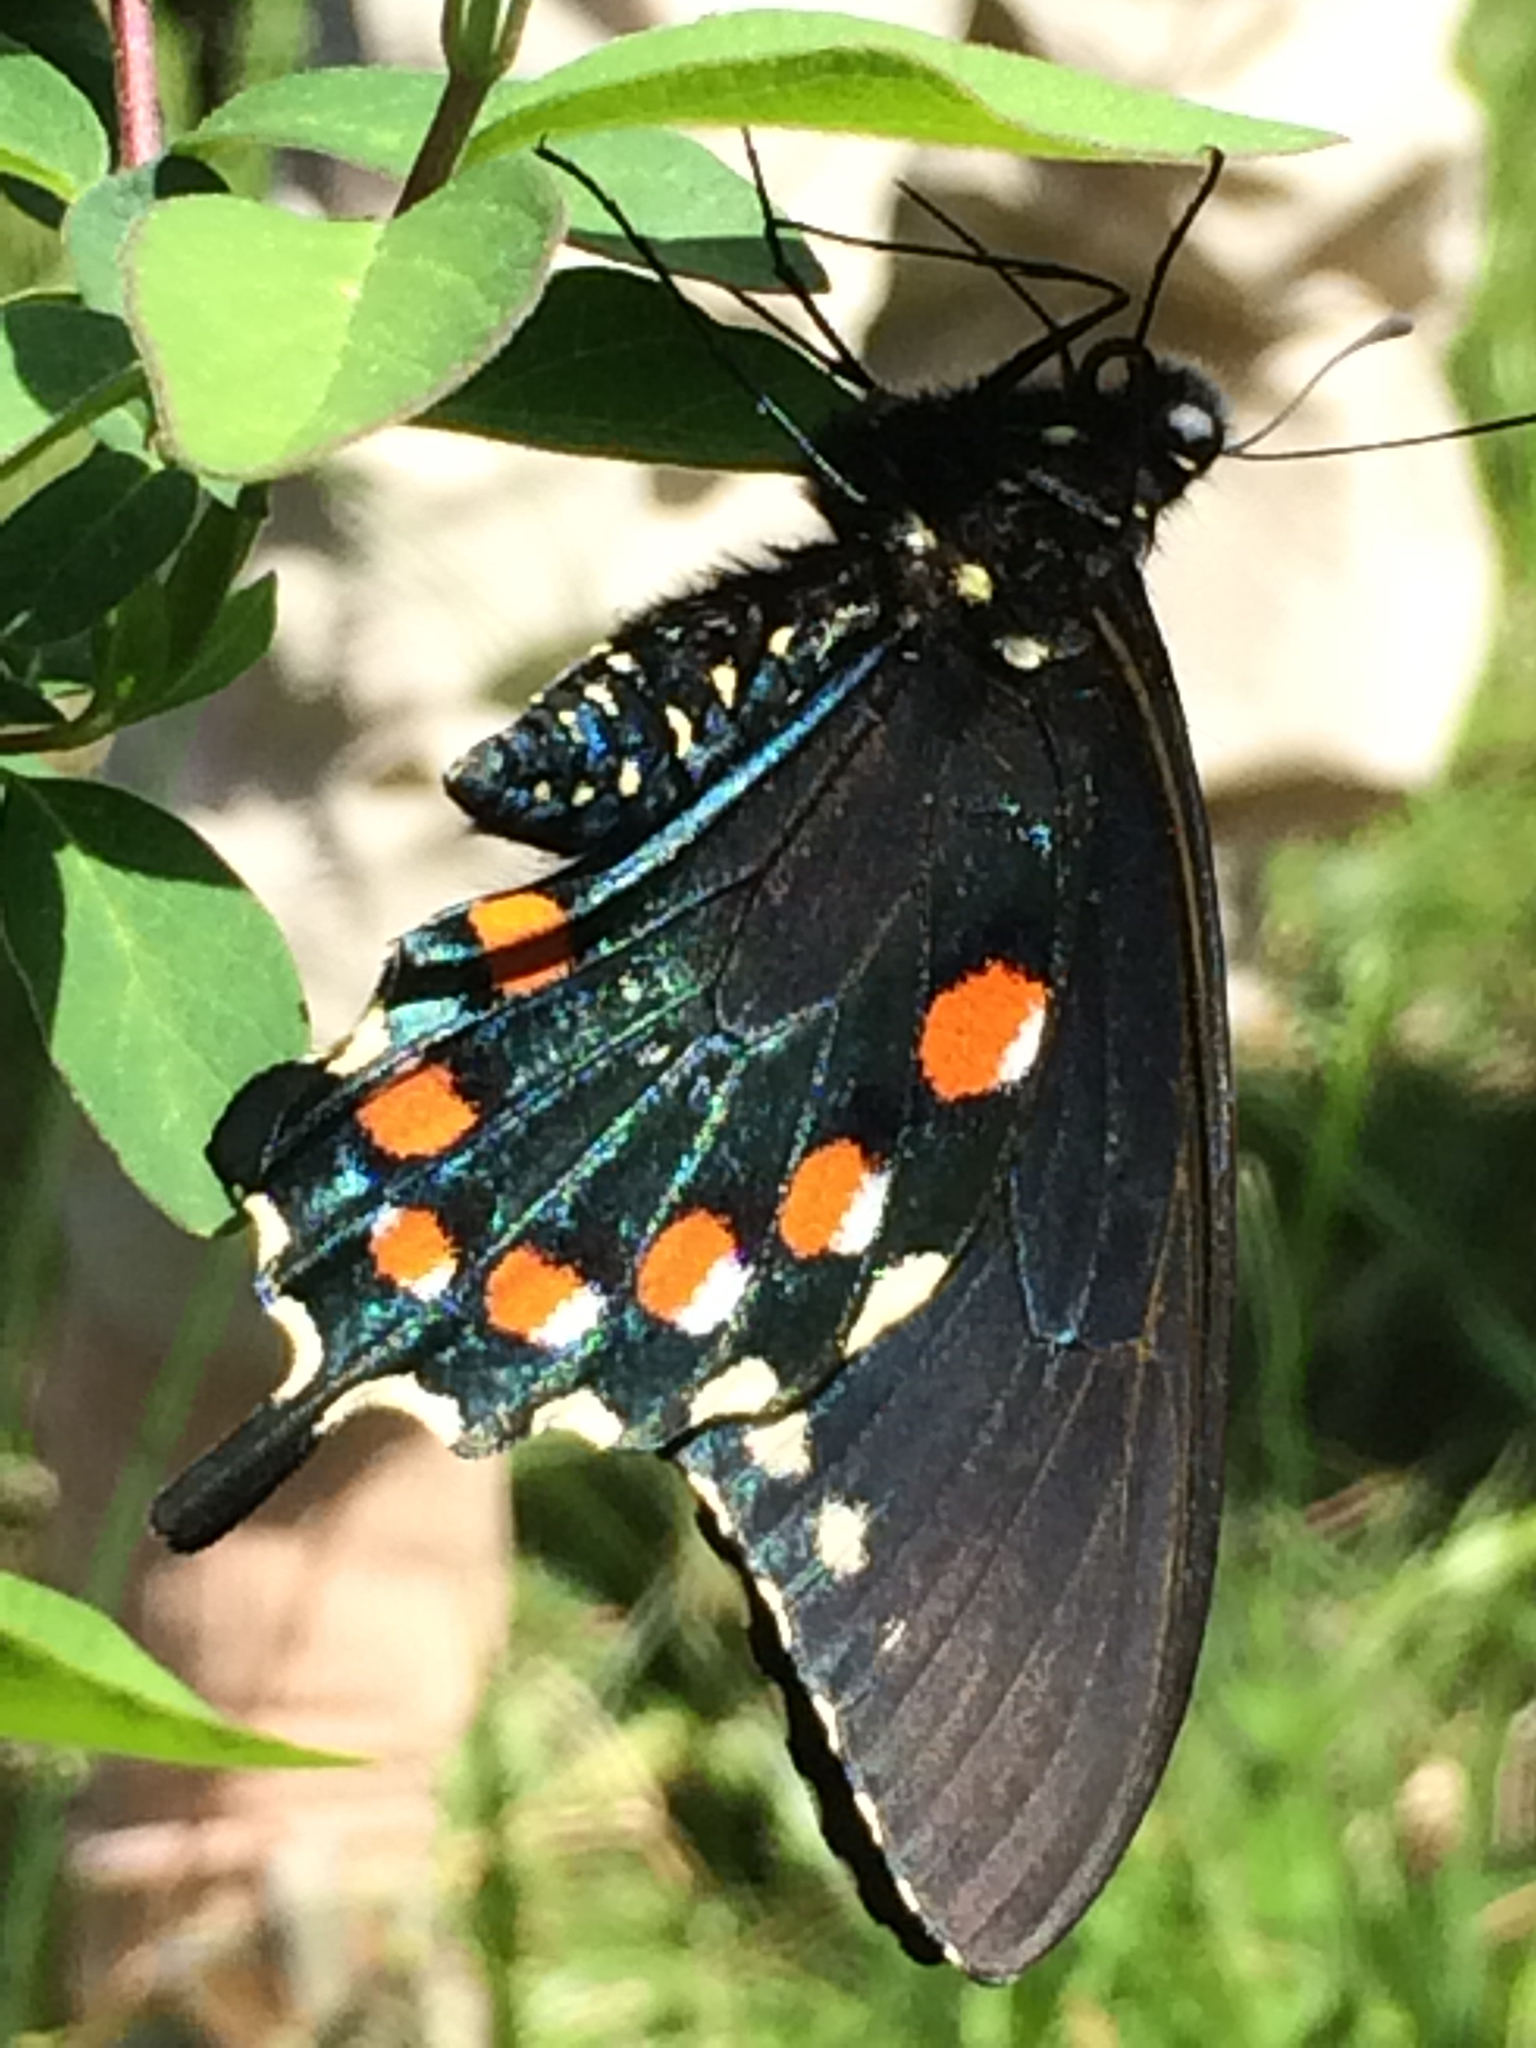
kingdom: Animalia
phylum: Arthropoda
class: Insecta
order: Lepidoptera
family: Papilionidae
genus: Battus
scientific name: Battus philenor
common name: Pipevine swallowtail
